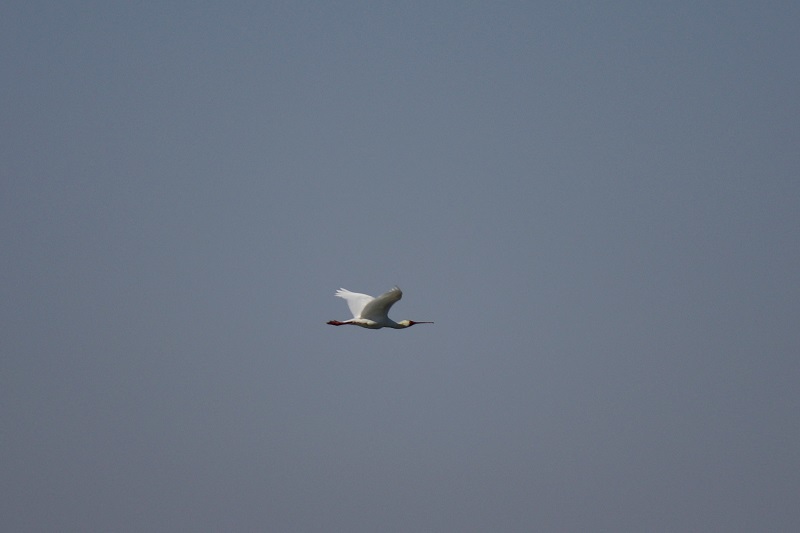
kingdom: Animalia
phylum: Chordata
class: Aves
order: Pelecaniformes
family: Threskiornithidae
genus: Platalea
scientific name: Platalea alba
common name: African spoonbill
